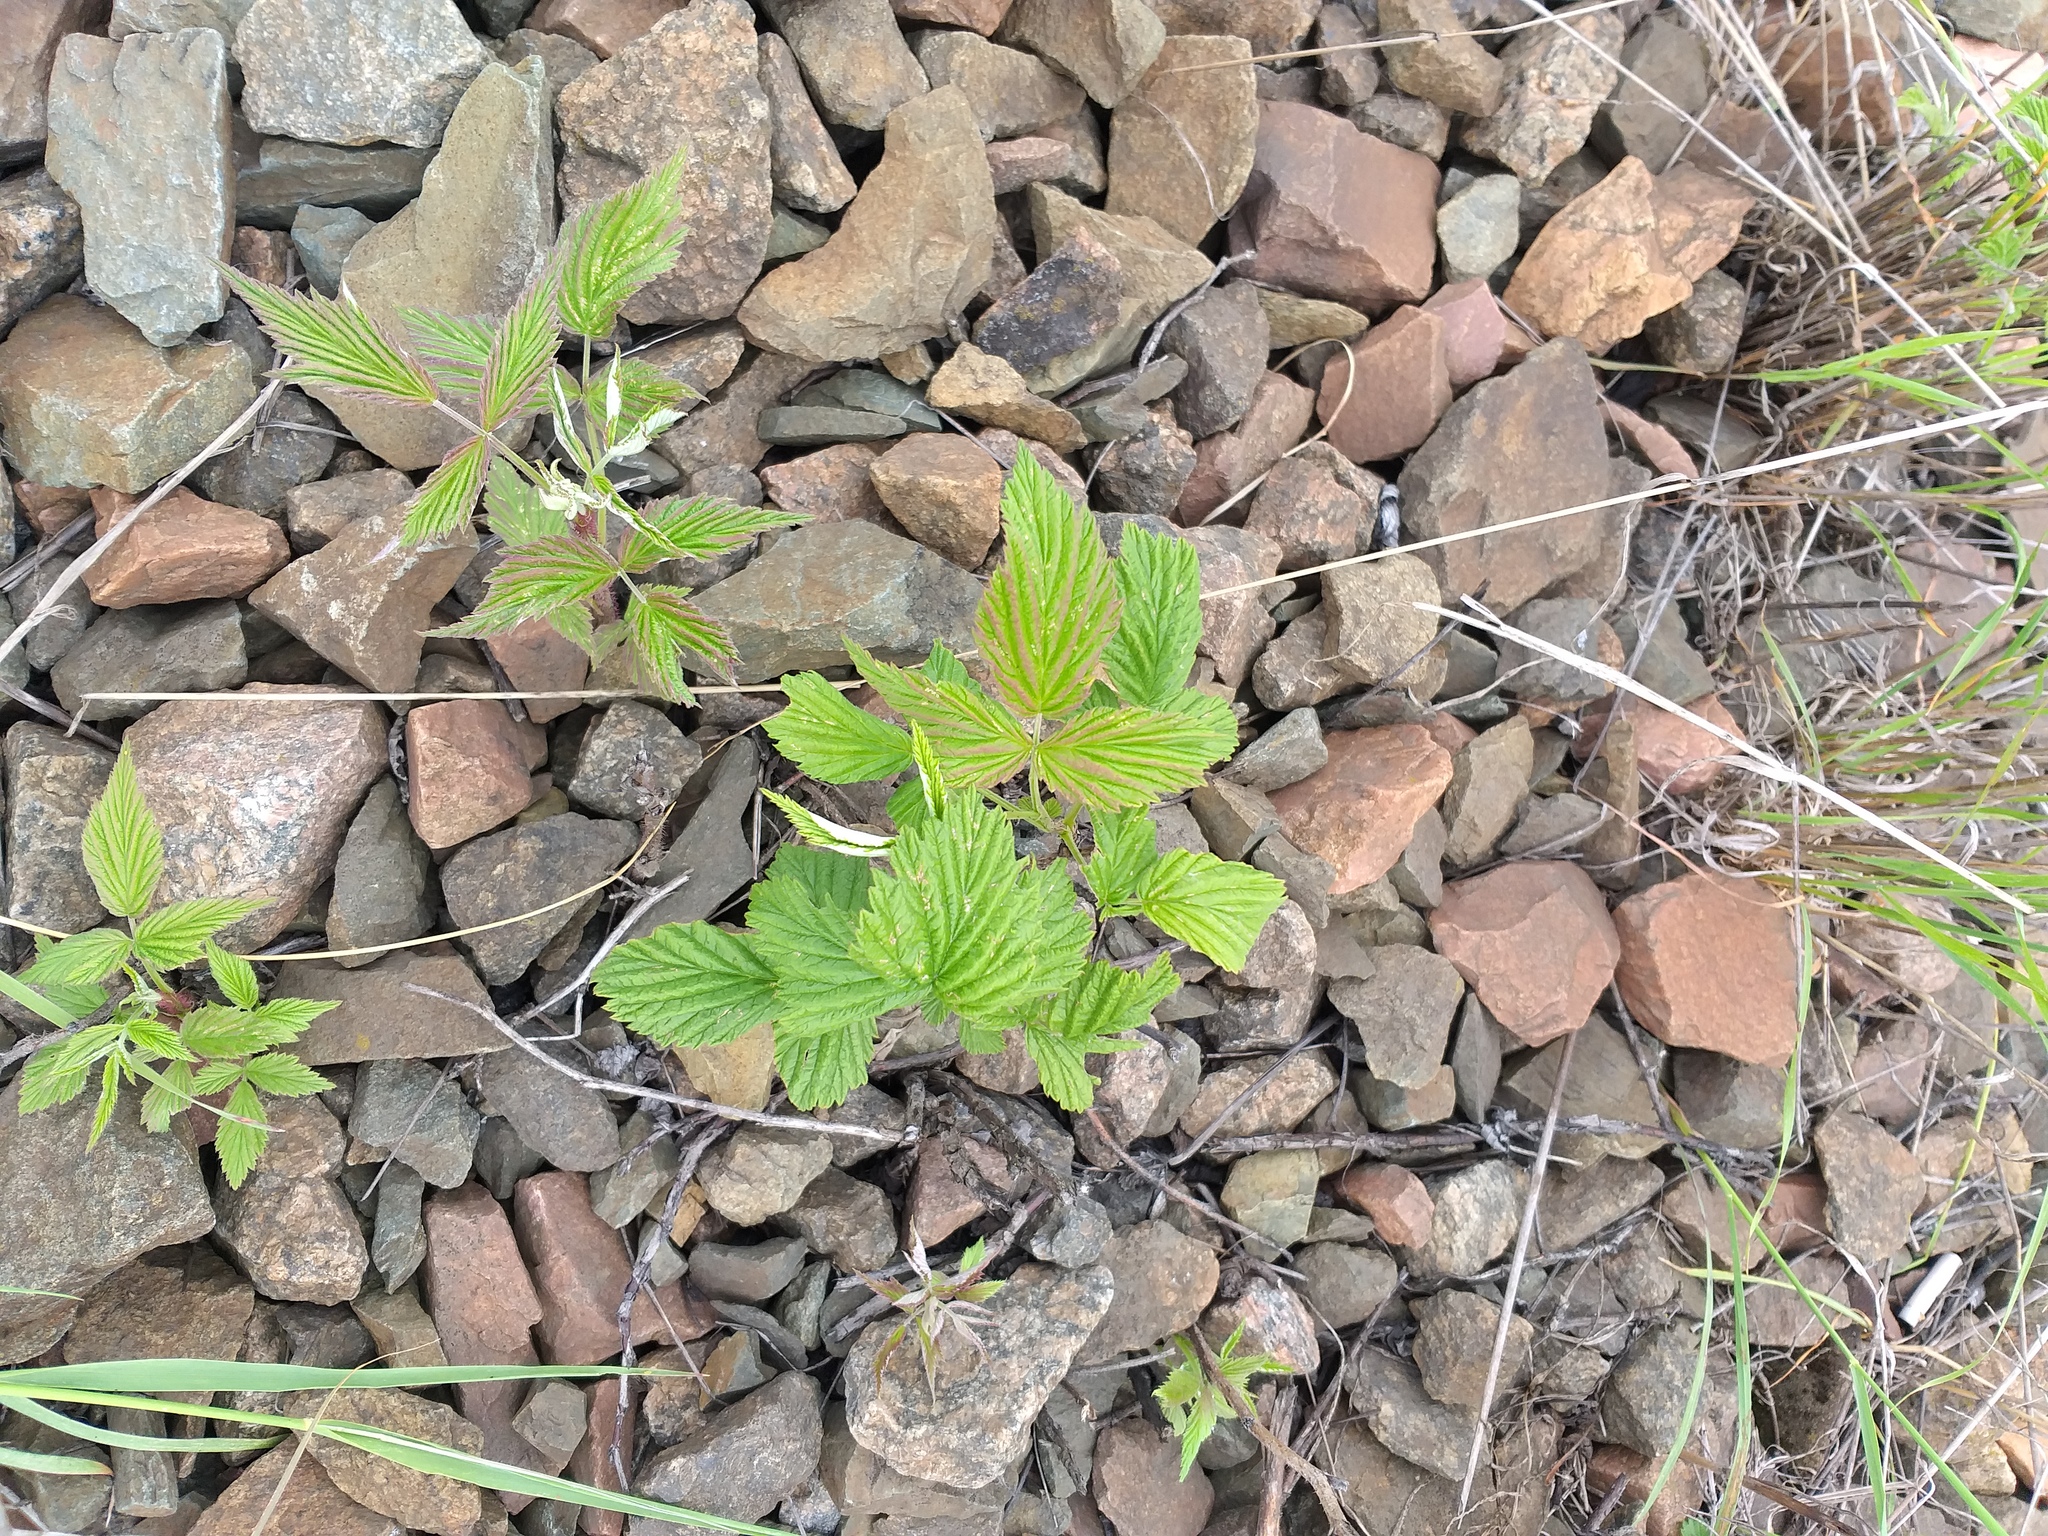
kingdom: Plantae
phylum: Tracheophyta
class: Magnoliopsida
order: Rosales
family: Rosaceae
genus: Rubus
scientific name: Rubus idaeus
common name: Raspberry
